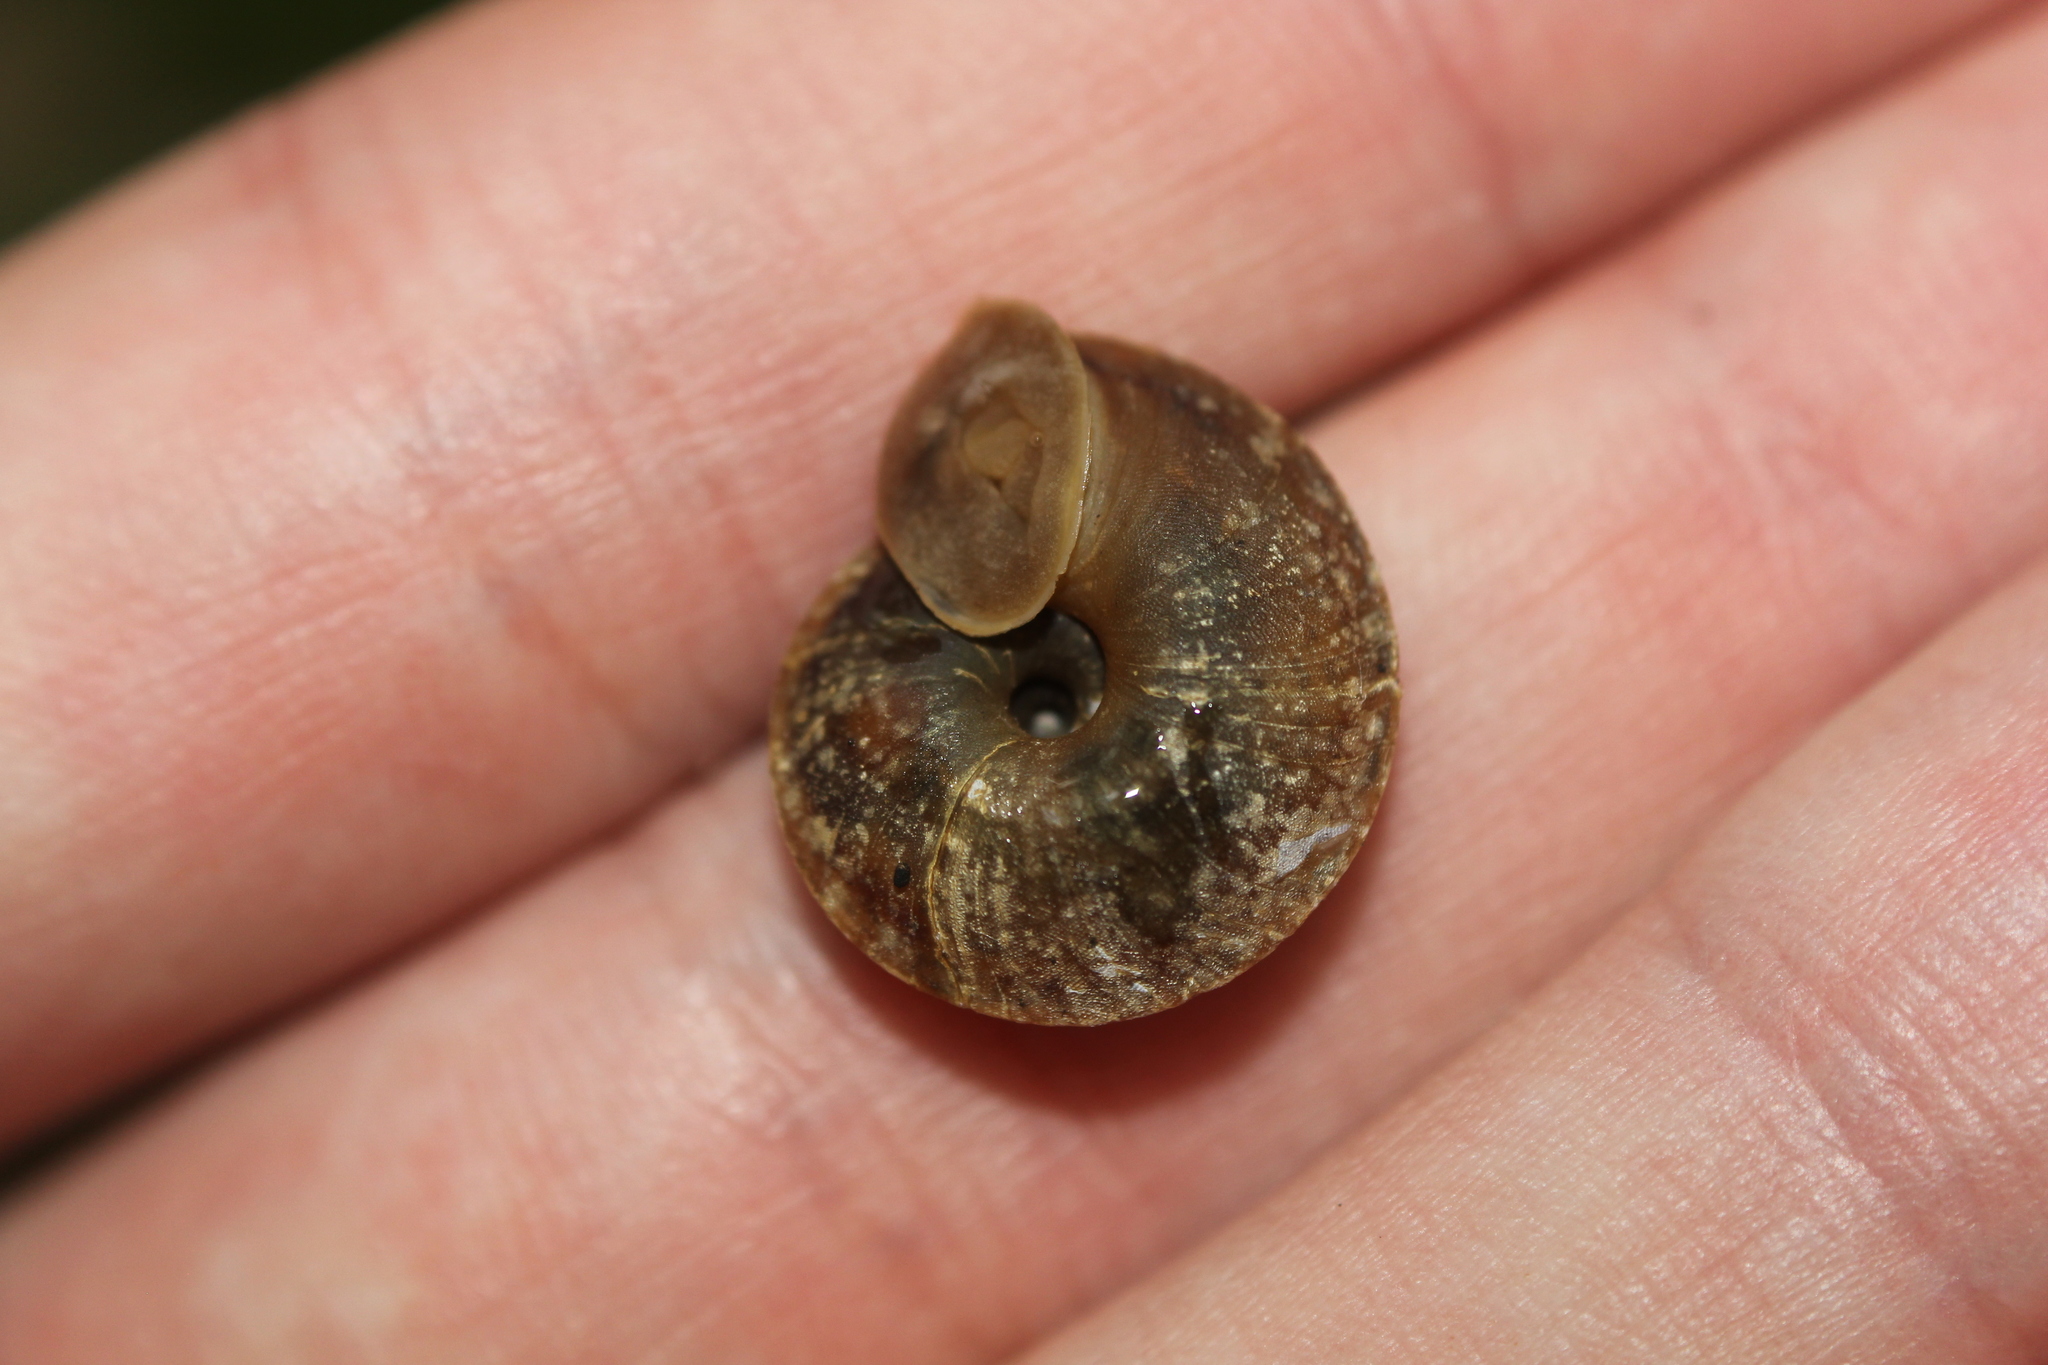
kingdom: Animalia
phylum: Mollusca
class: Gastropoda
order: Stylommatophora
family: Helicidae
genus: Helicigona
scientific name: Helicigona lapicida
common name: Lapidary snail
